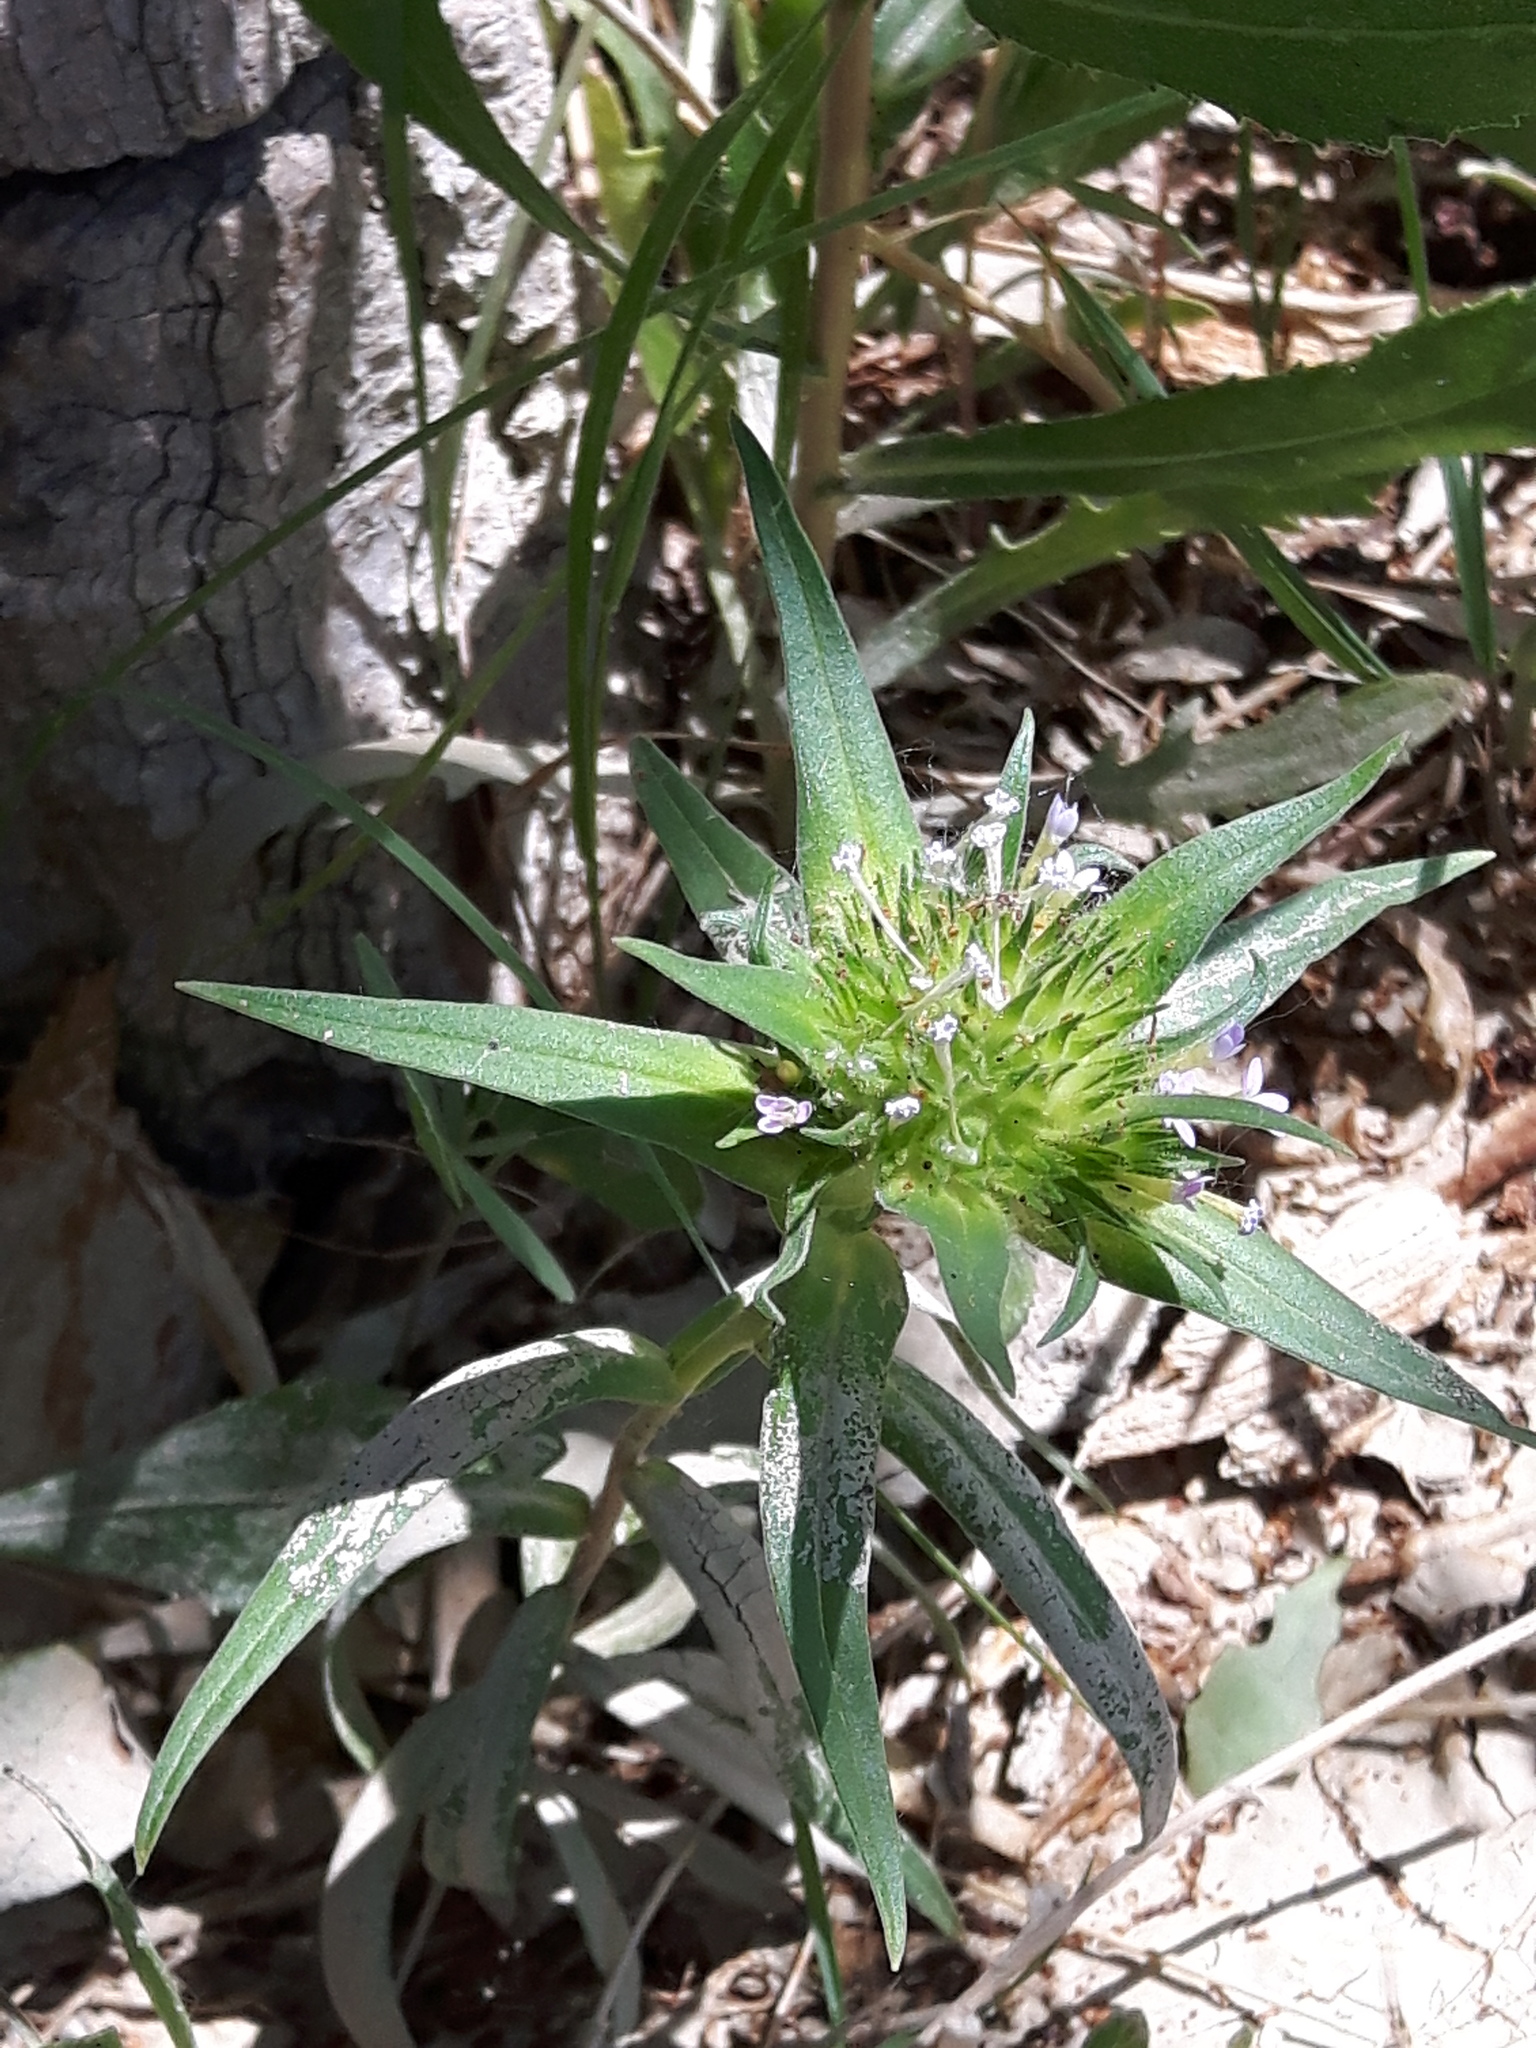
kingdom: Plantae
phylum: Tracheophyta
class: Magnoliopsida
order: Ericales
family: Polemoniaceae
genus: Collomia
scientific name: Collomia linearis
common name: Tiny trumpet
